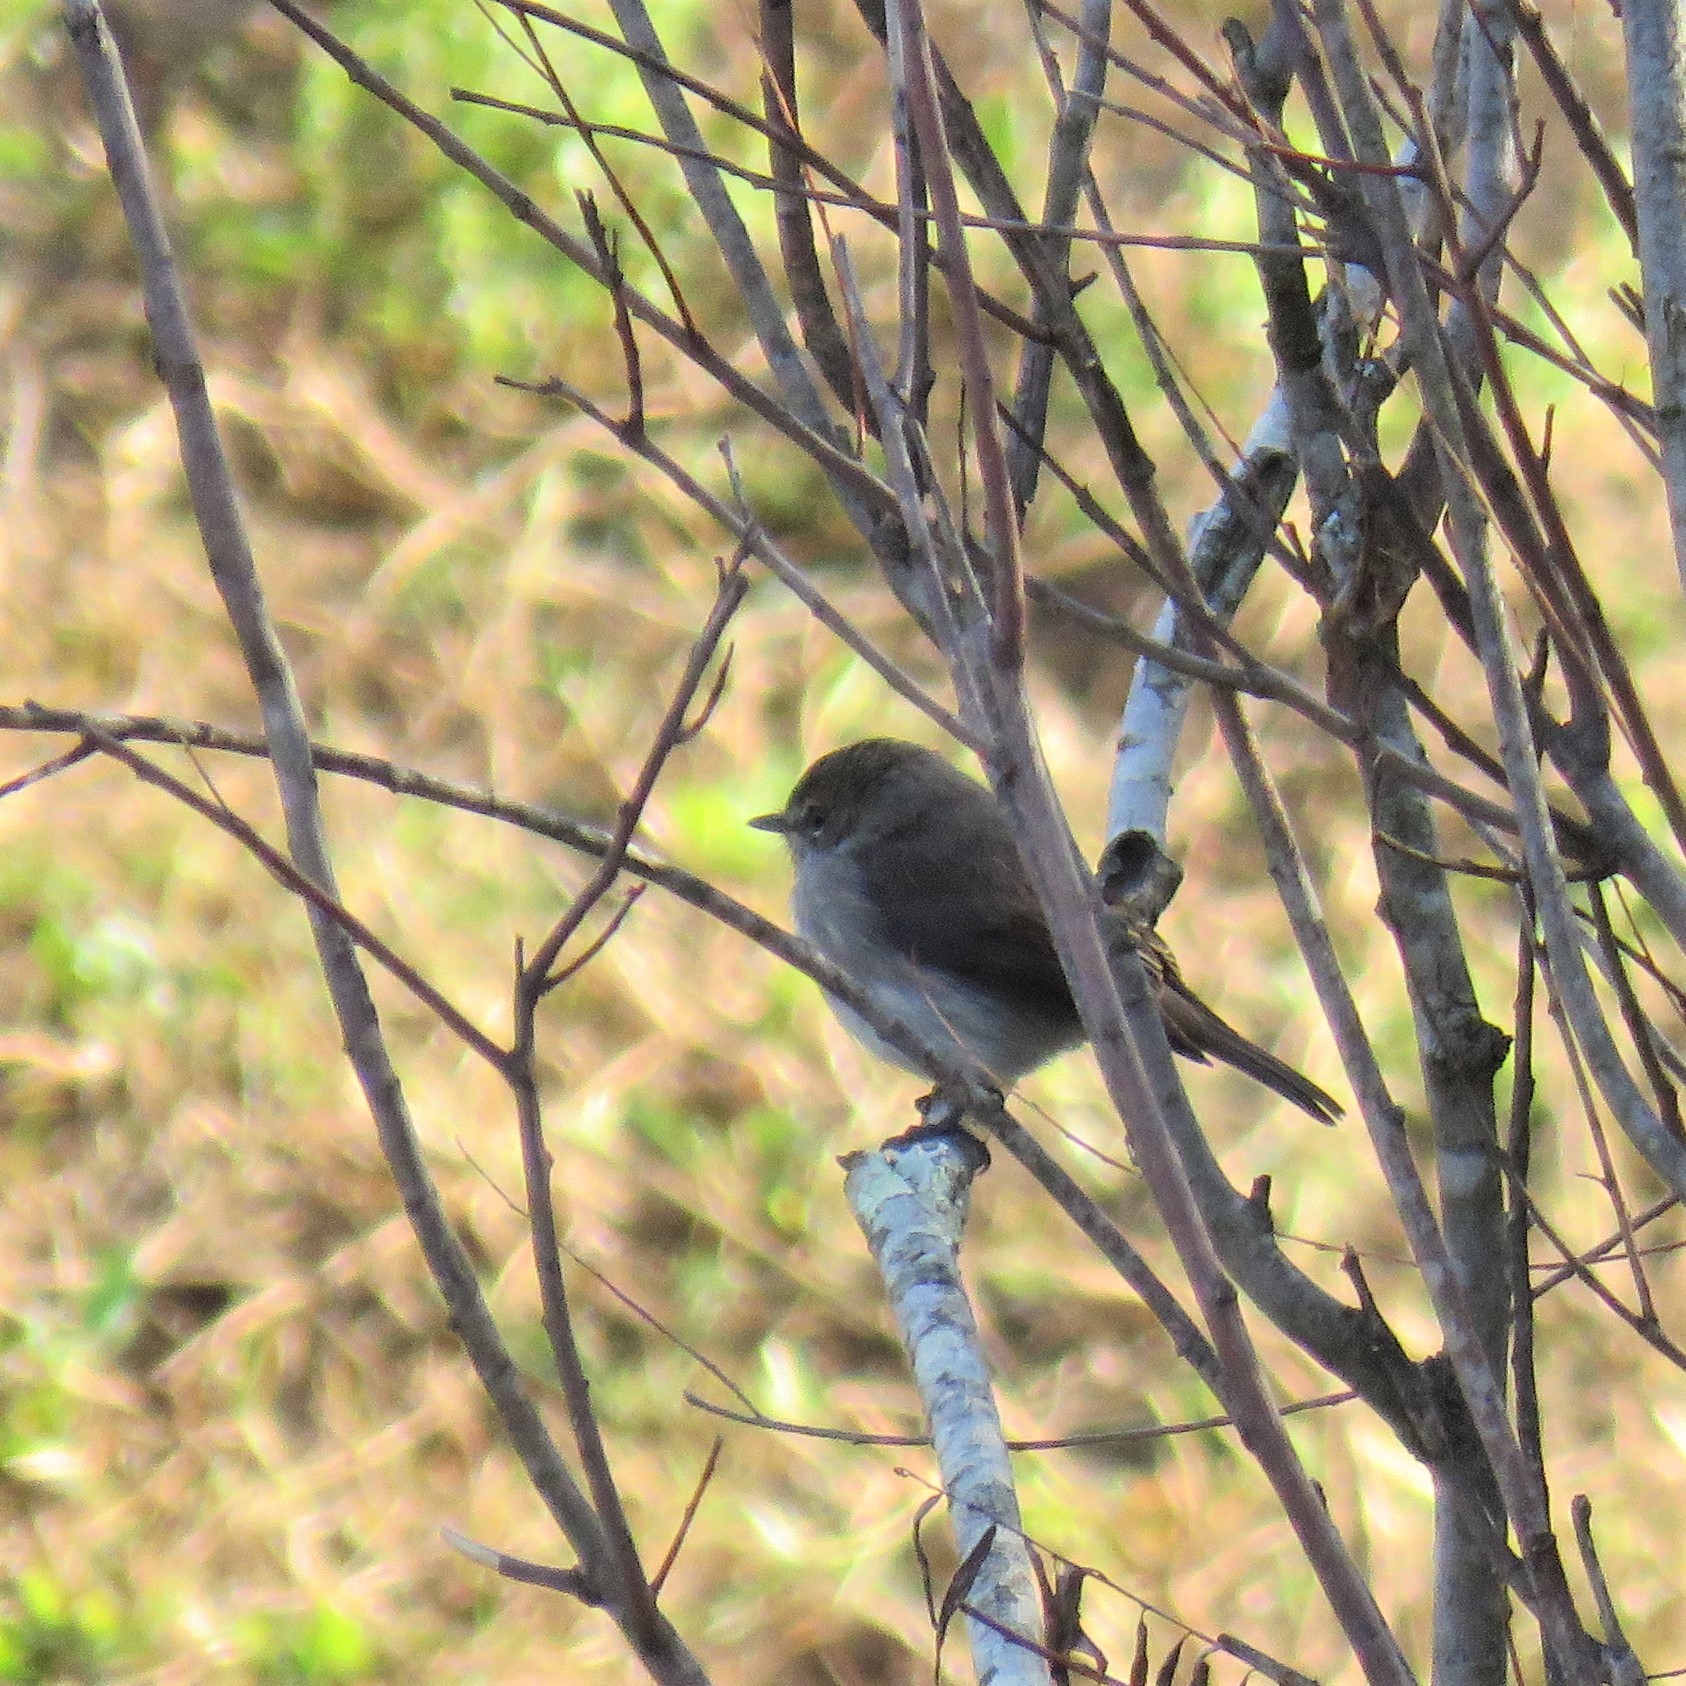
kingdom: Animalia
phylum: Chordata
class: Aves
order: Passeriformes
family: Muscicapidae
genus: Muscicapa
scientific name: Muscicapa adusta
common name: African dusky flycatcher
